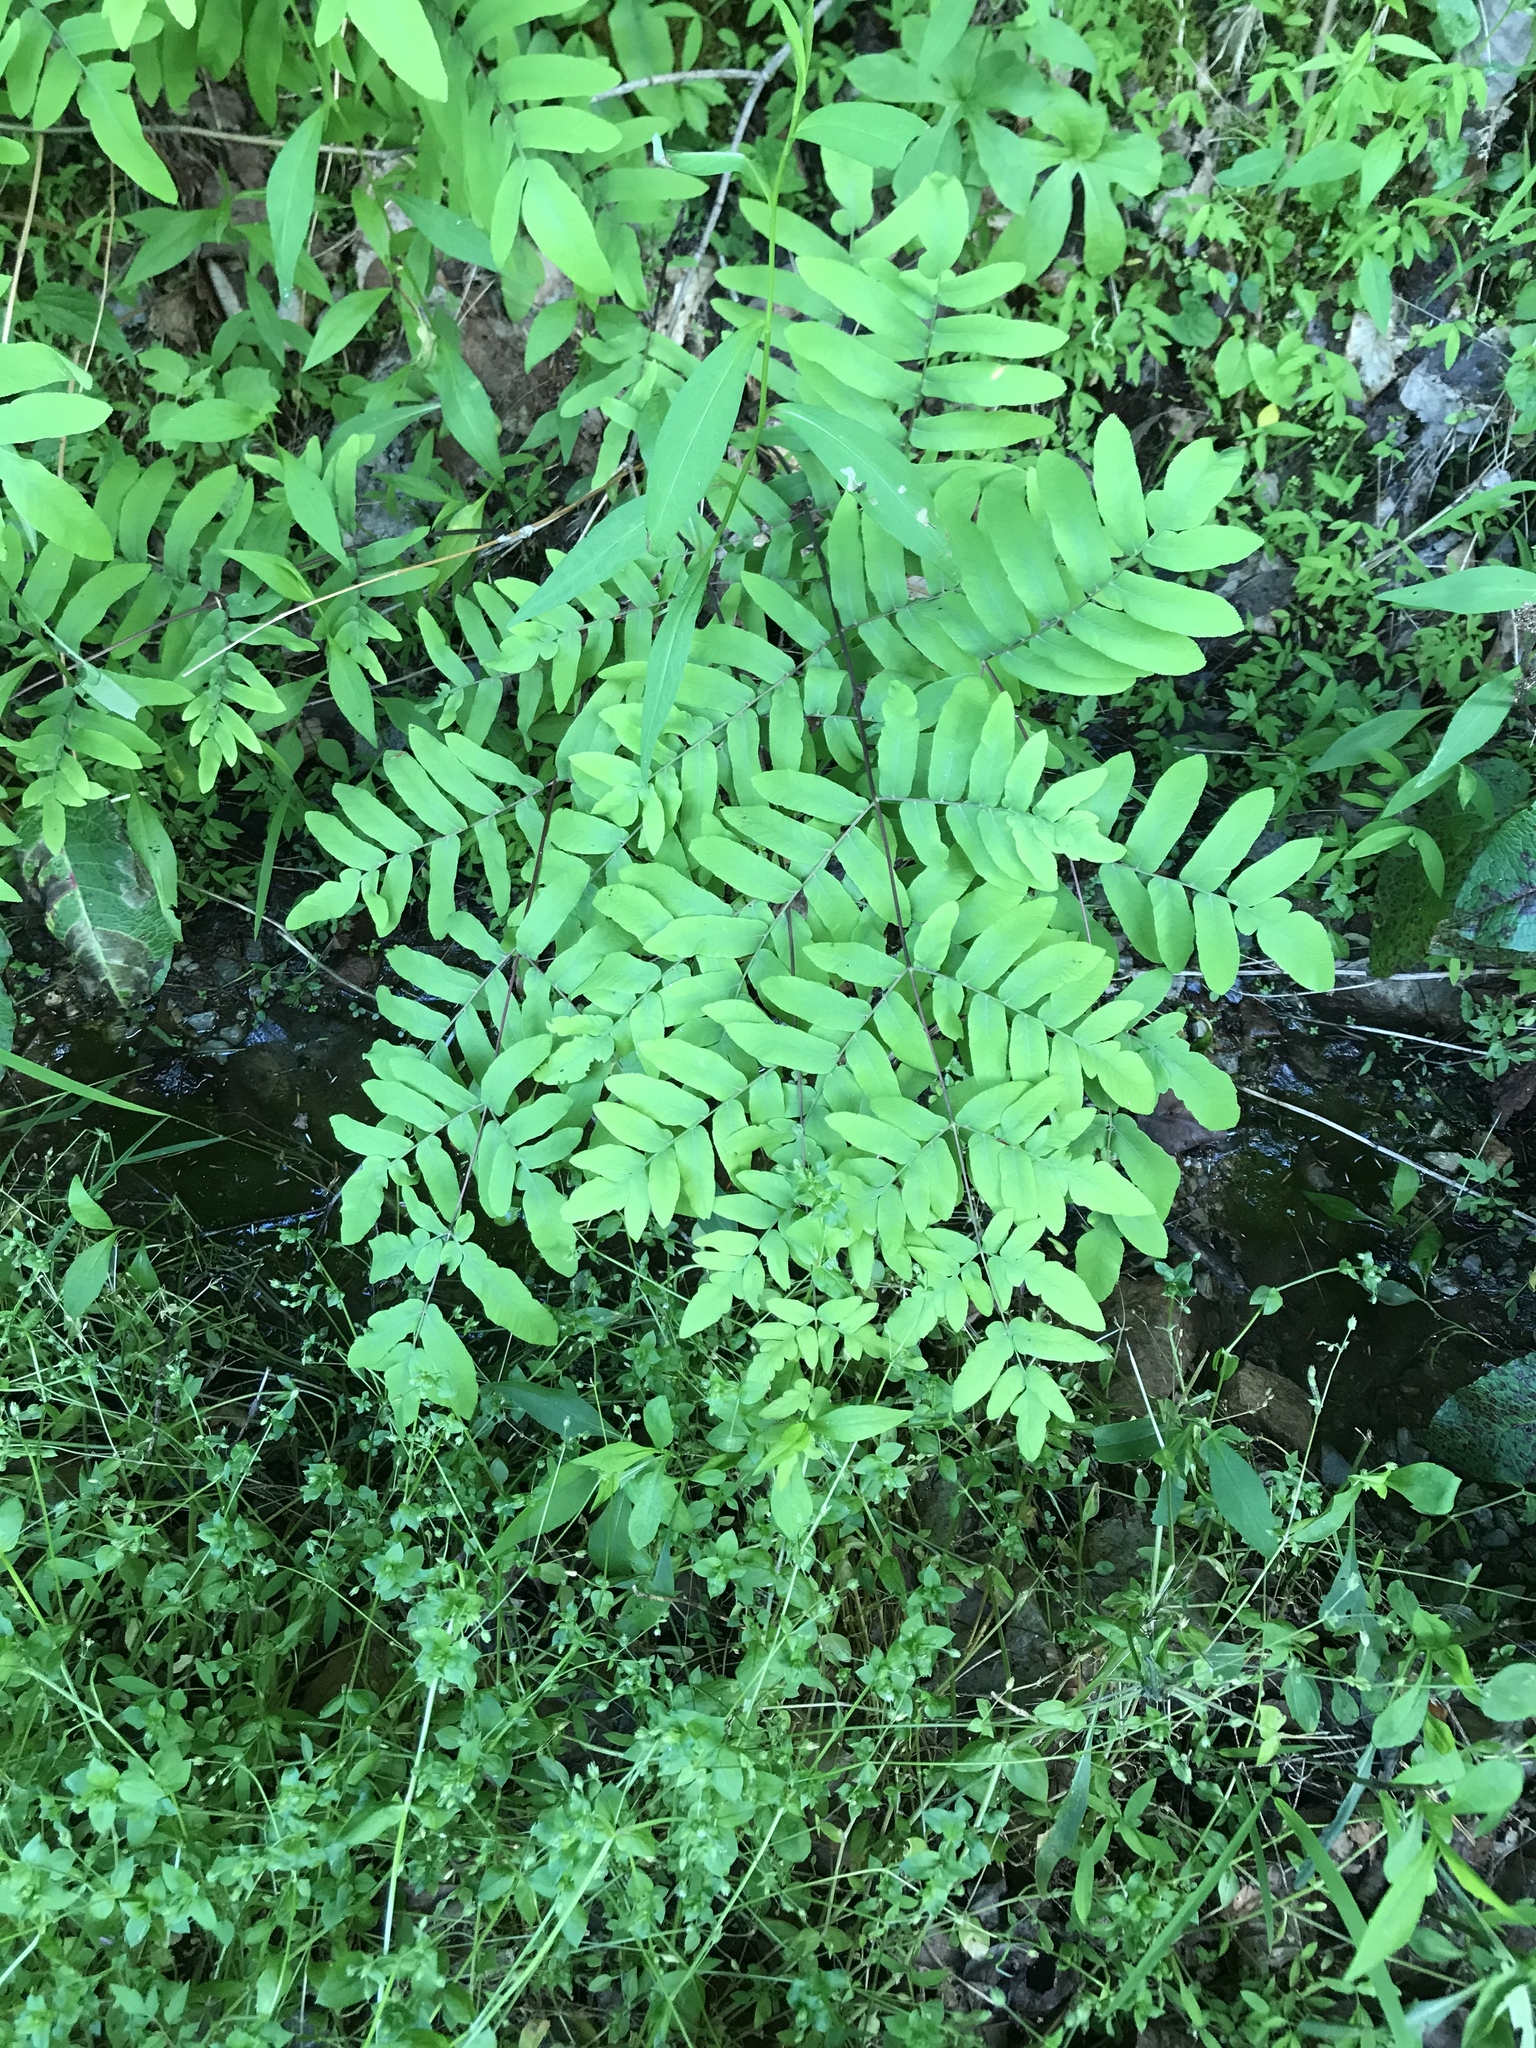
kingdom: Plantae
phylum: Tracheophyta
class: Polypodiopsida
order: Osmundales
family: Osmundaceae
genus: Osmunda
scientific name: Osmunda spectabilis
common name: American royal fern
